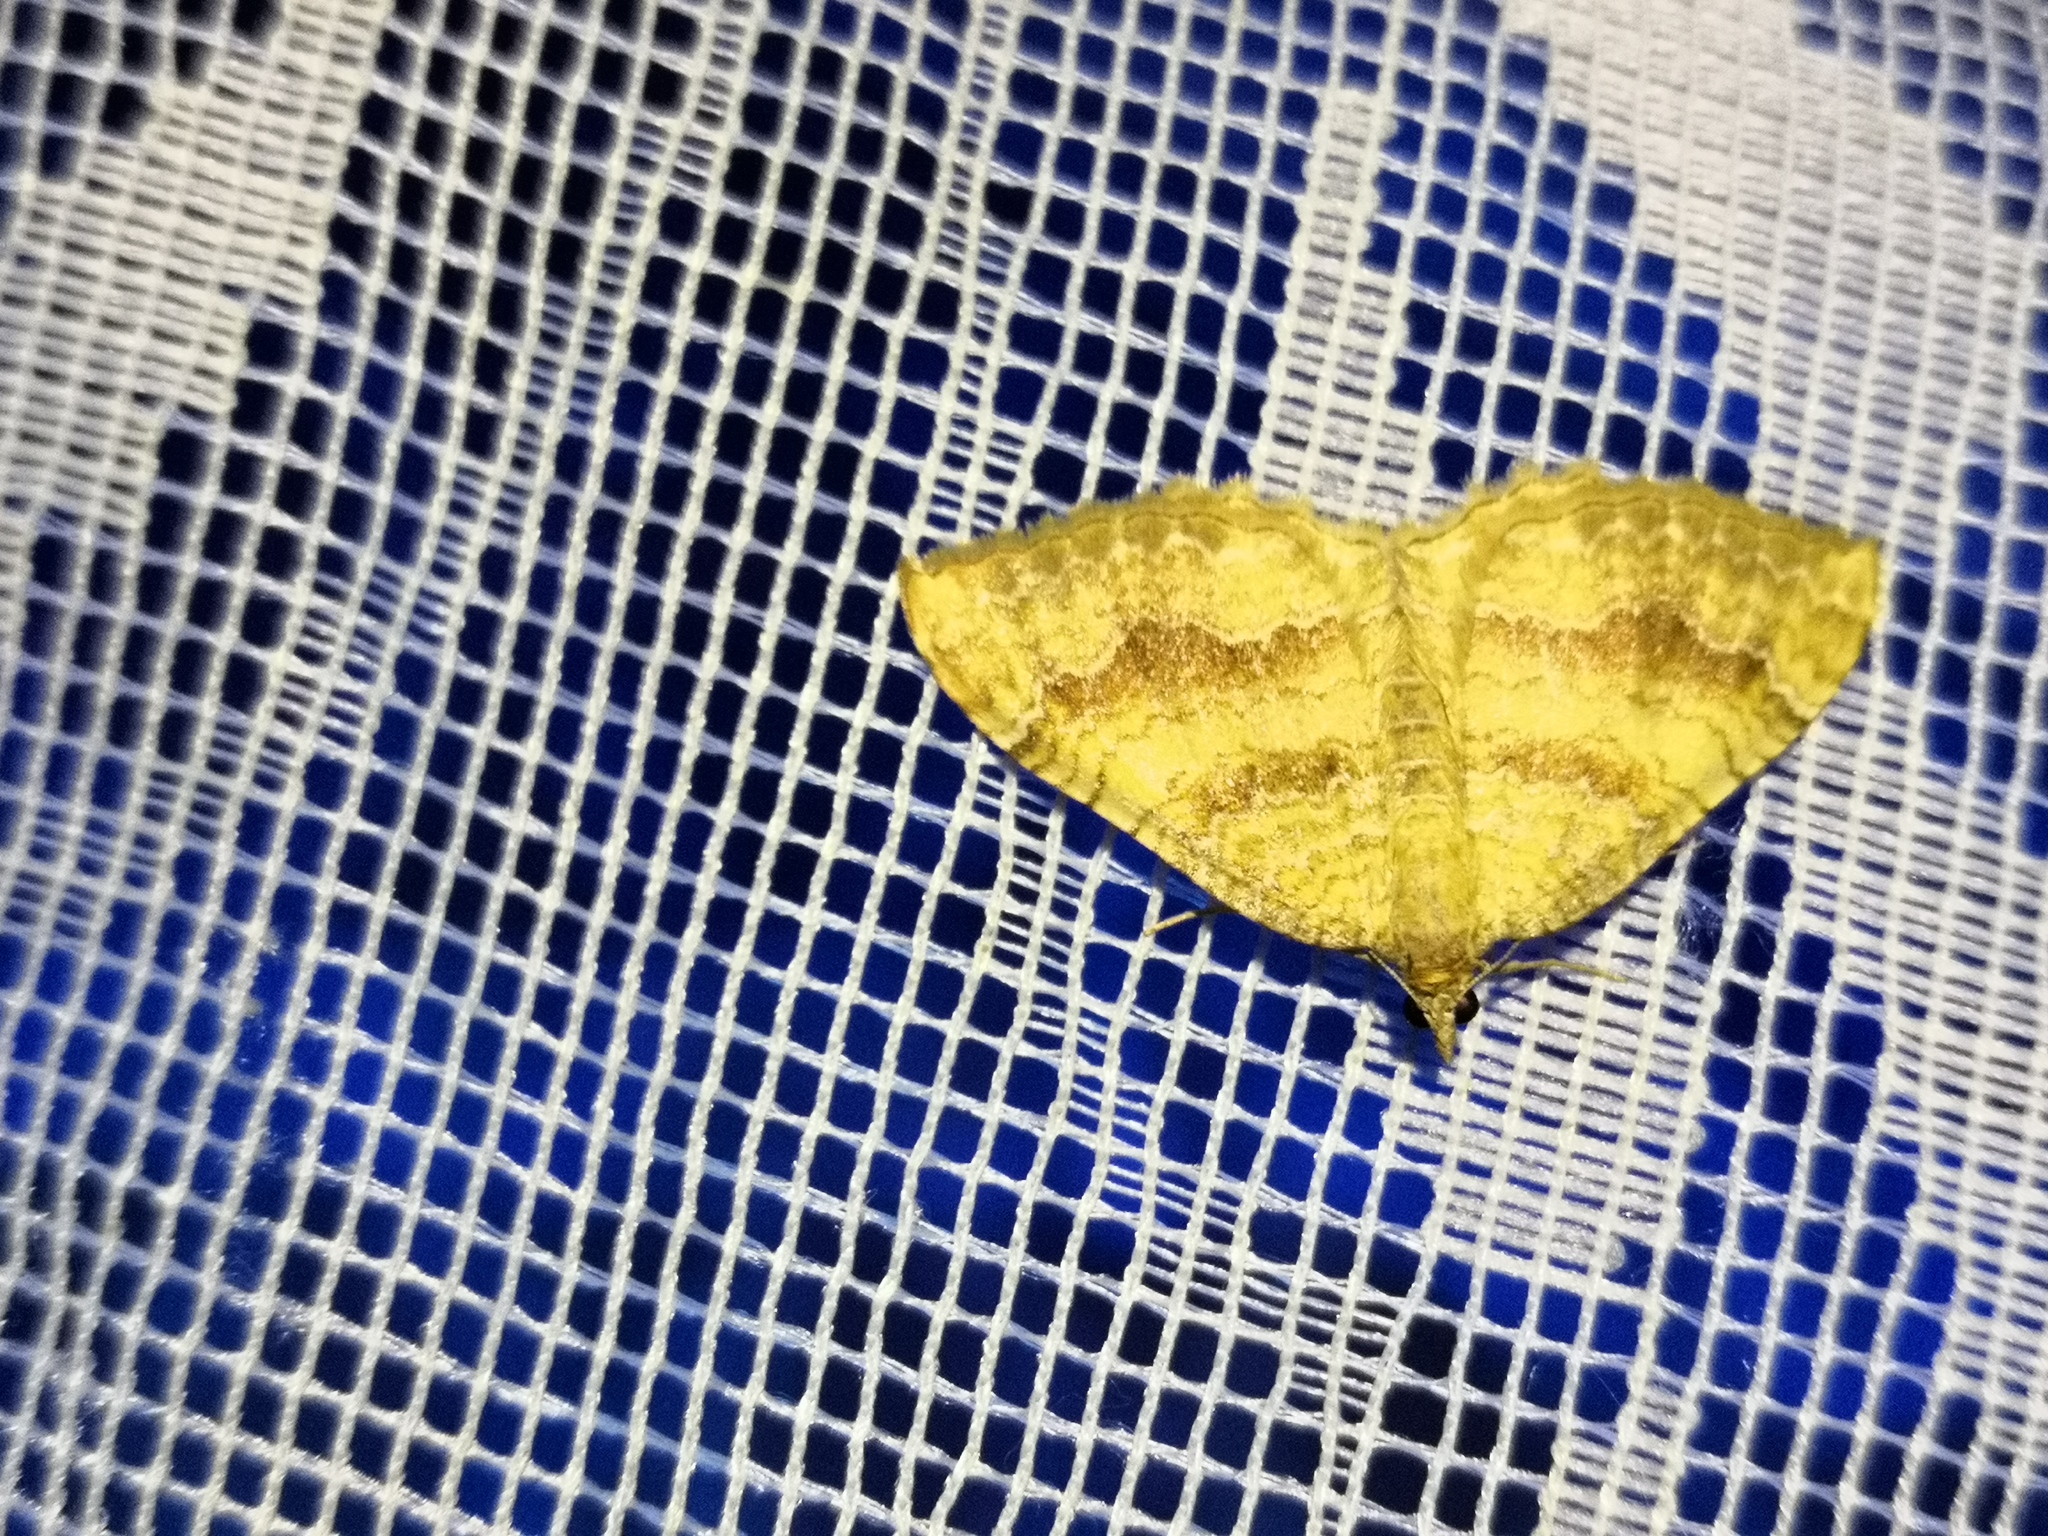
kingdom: Animalia
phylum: Arthropoda
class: Insecta
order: Lepidoptera
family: Geometridae
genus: Camptogramma
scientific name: Camptogramma bilineata
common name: Yellow shell
